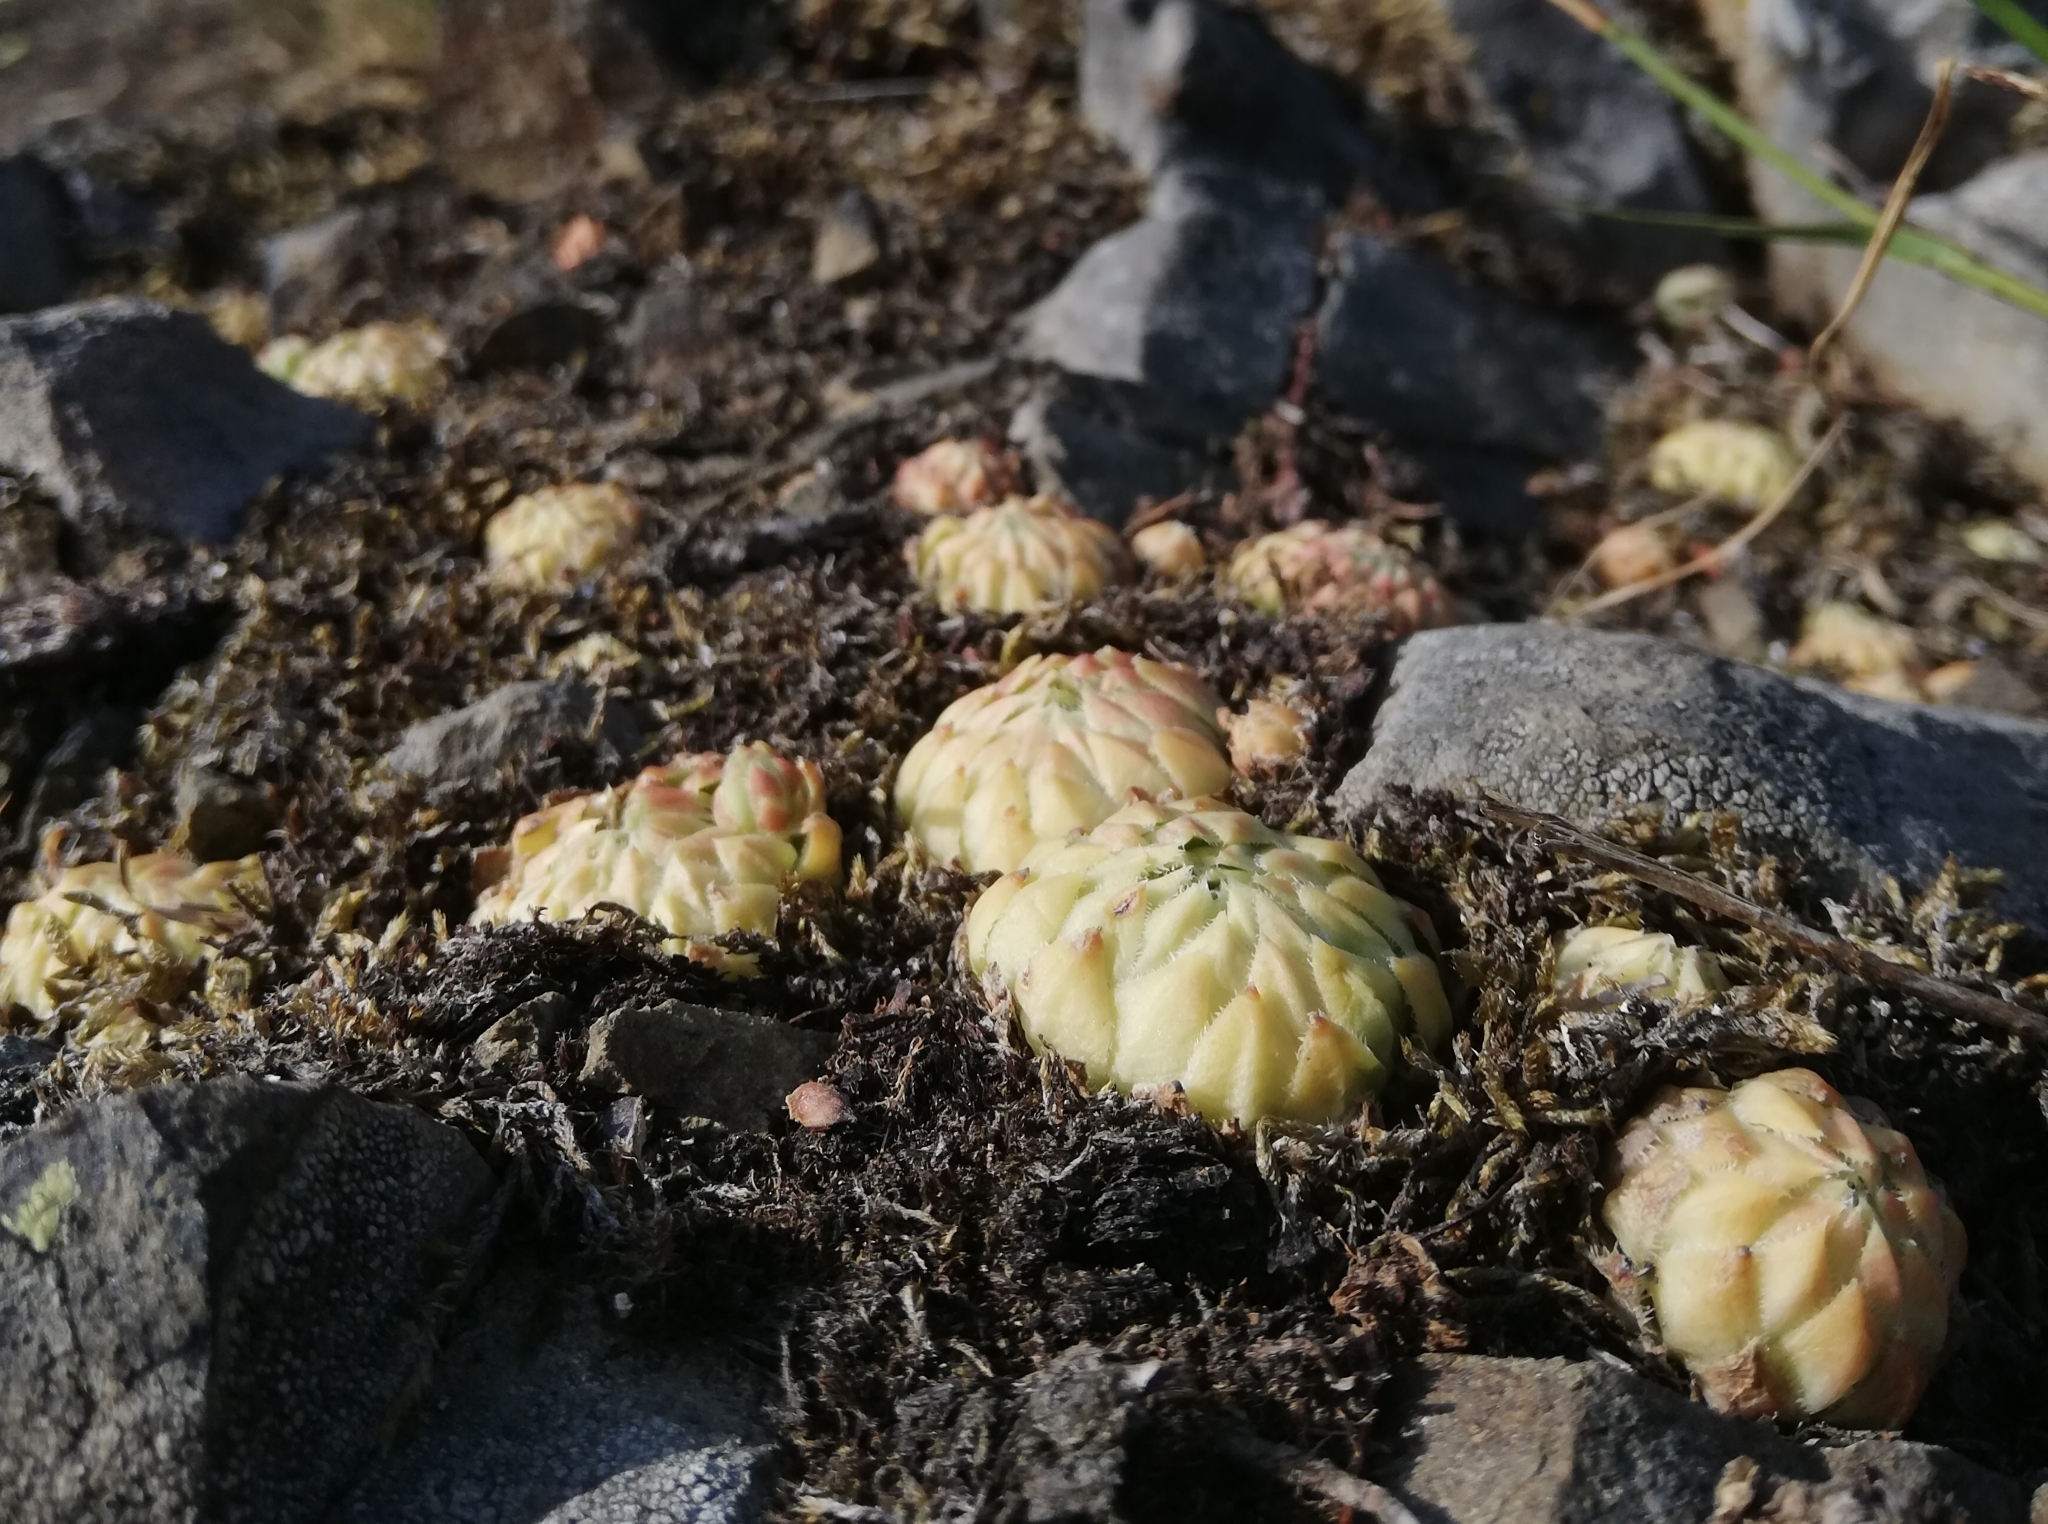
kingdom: Plantae
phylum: Tracheophyta
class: Magnoliopsida
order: Saxifragales
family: Crassulaceae
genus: Sempervivum
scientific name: Sempervivum globiferum
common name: Rolling hen-and-chicks
